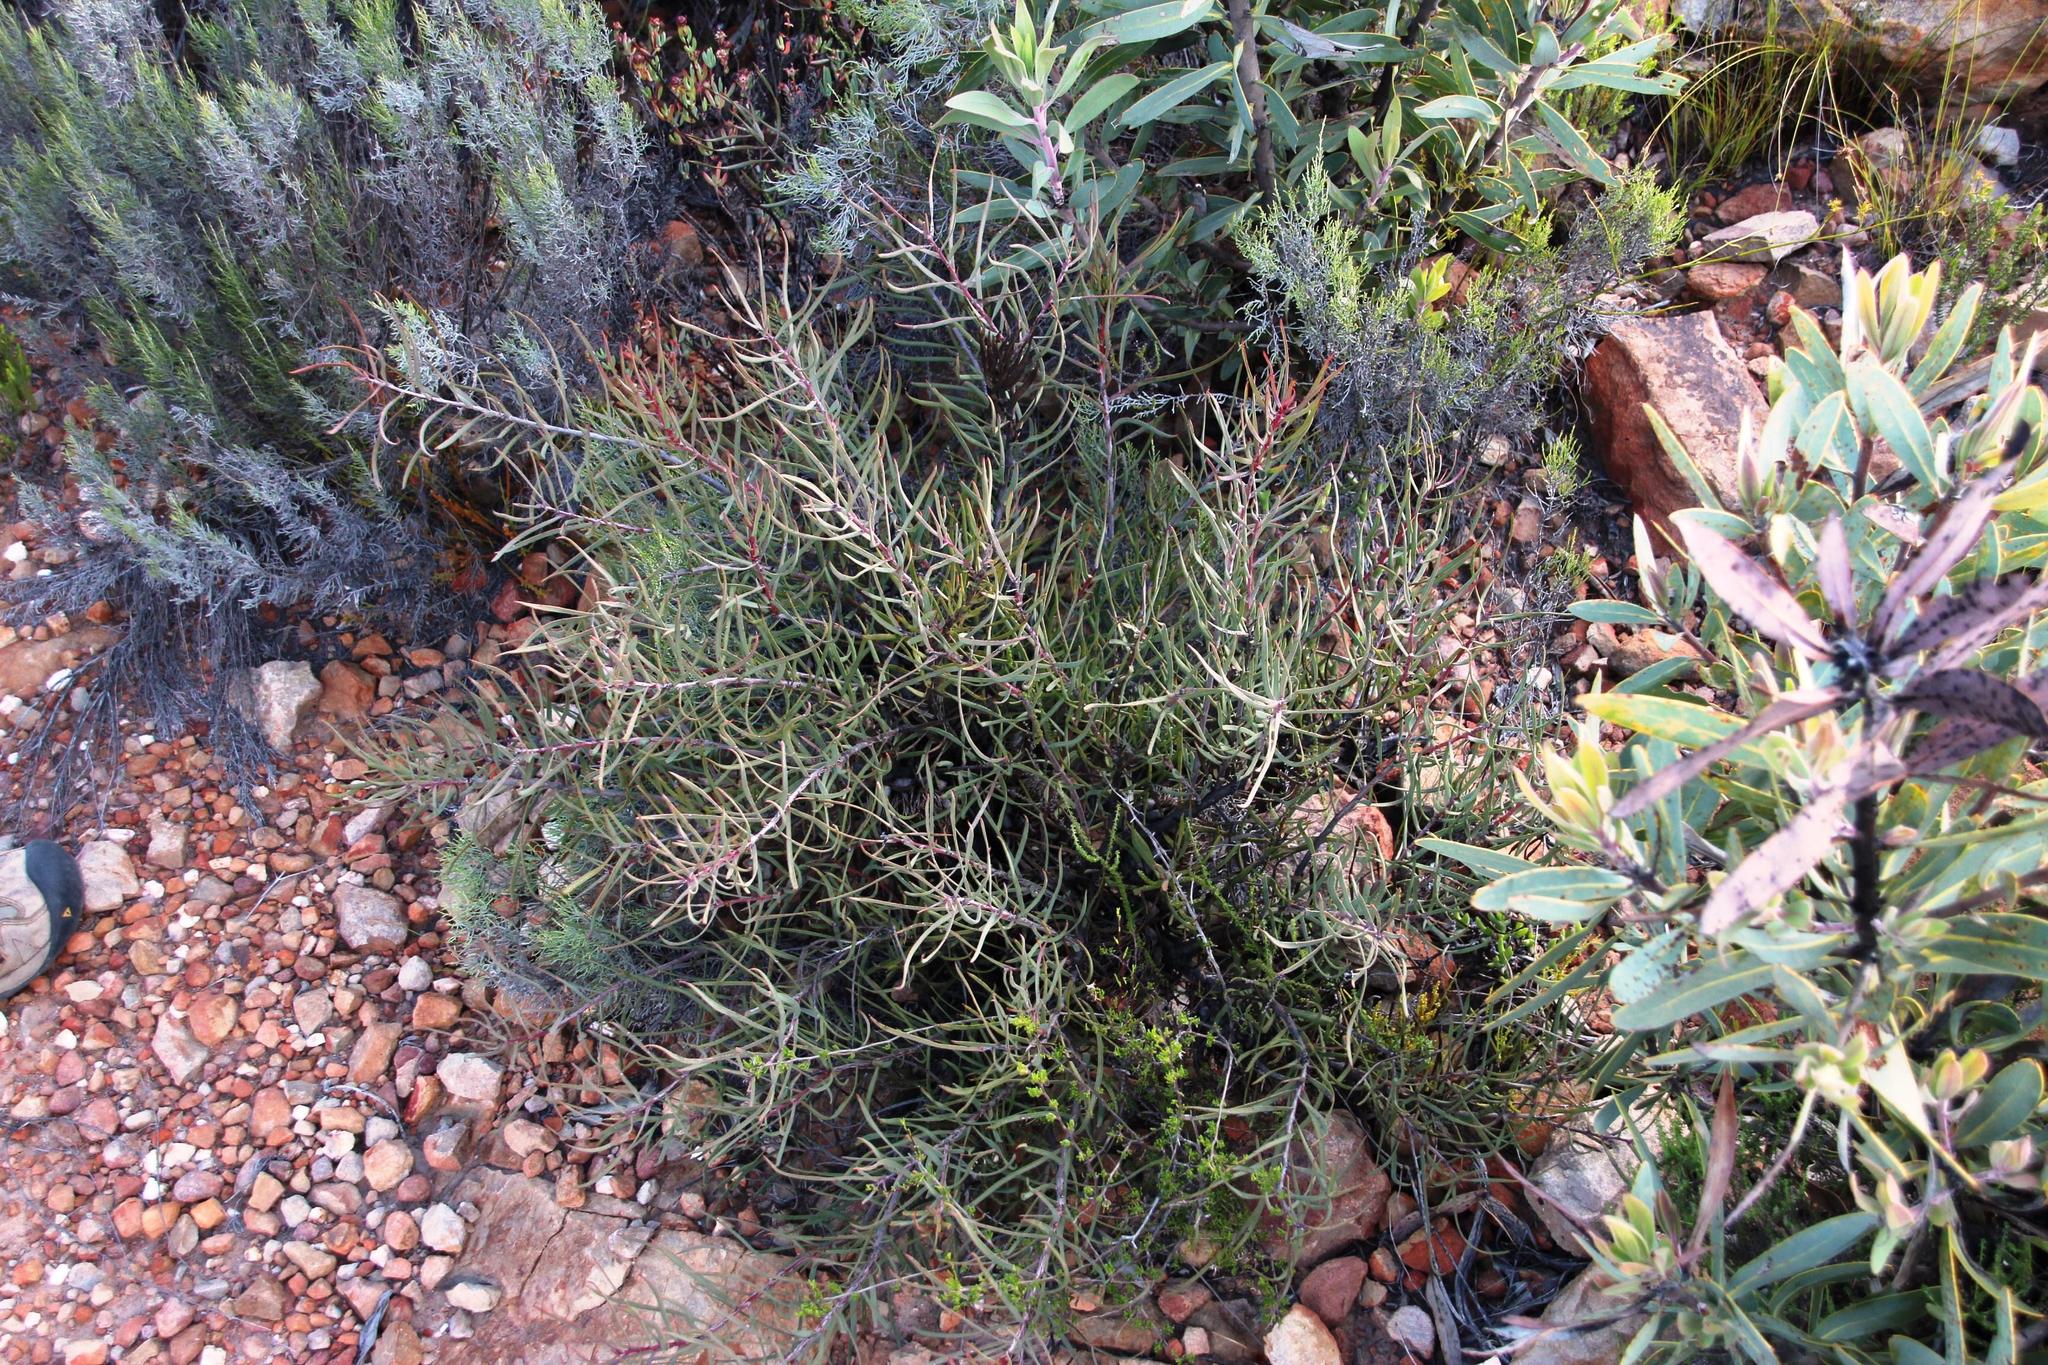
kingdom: Plantae
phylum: Tracheophyta
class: Magnoliopsida
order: Proteales
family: Proteaceae
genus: Protea
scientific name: Protea humiflora
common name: Patent-leaf sugarbush
